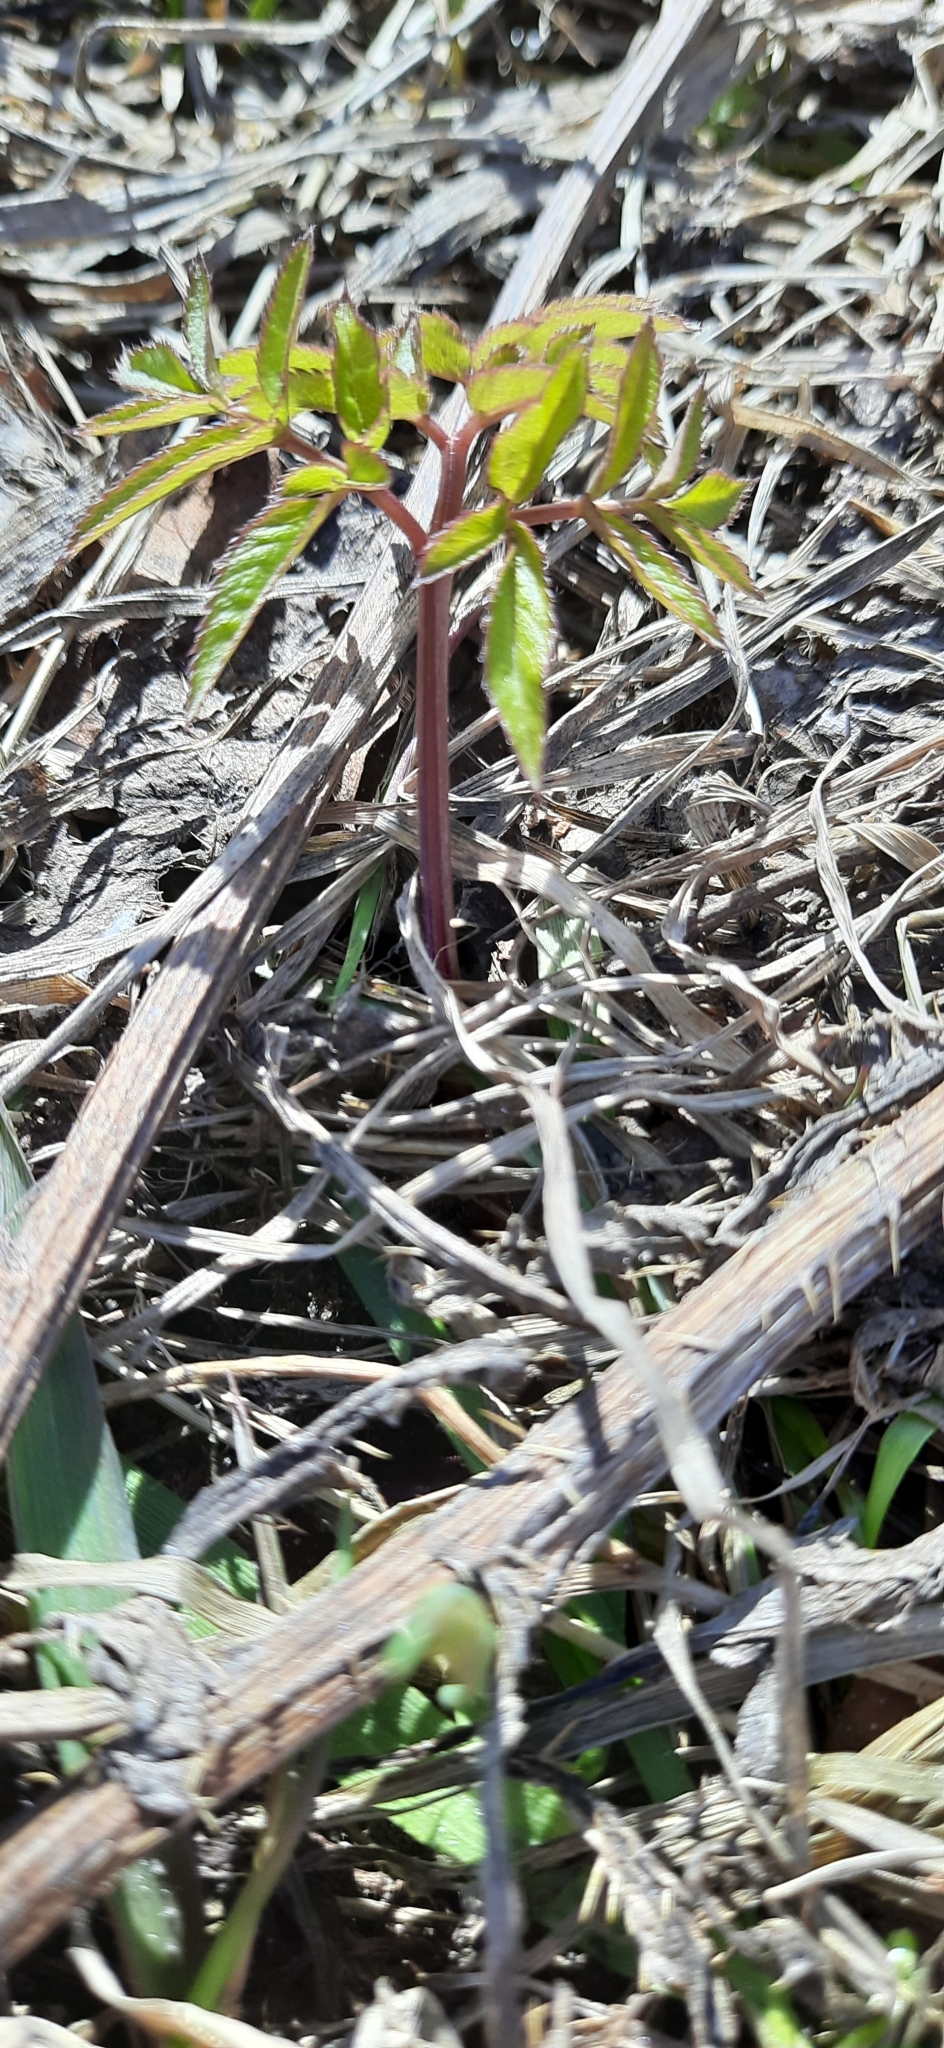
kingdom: Plantae
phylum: Tracheophyta
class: Magnoliopsida
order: Apiales
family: Apiaceae
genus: Angelica
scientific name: Angelica sylvestris
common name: Wild angelica
